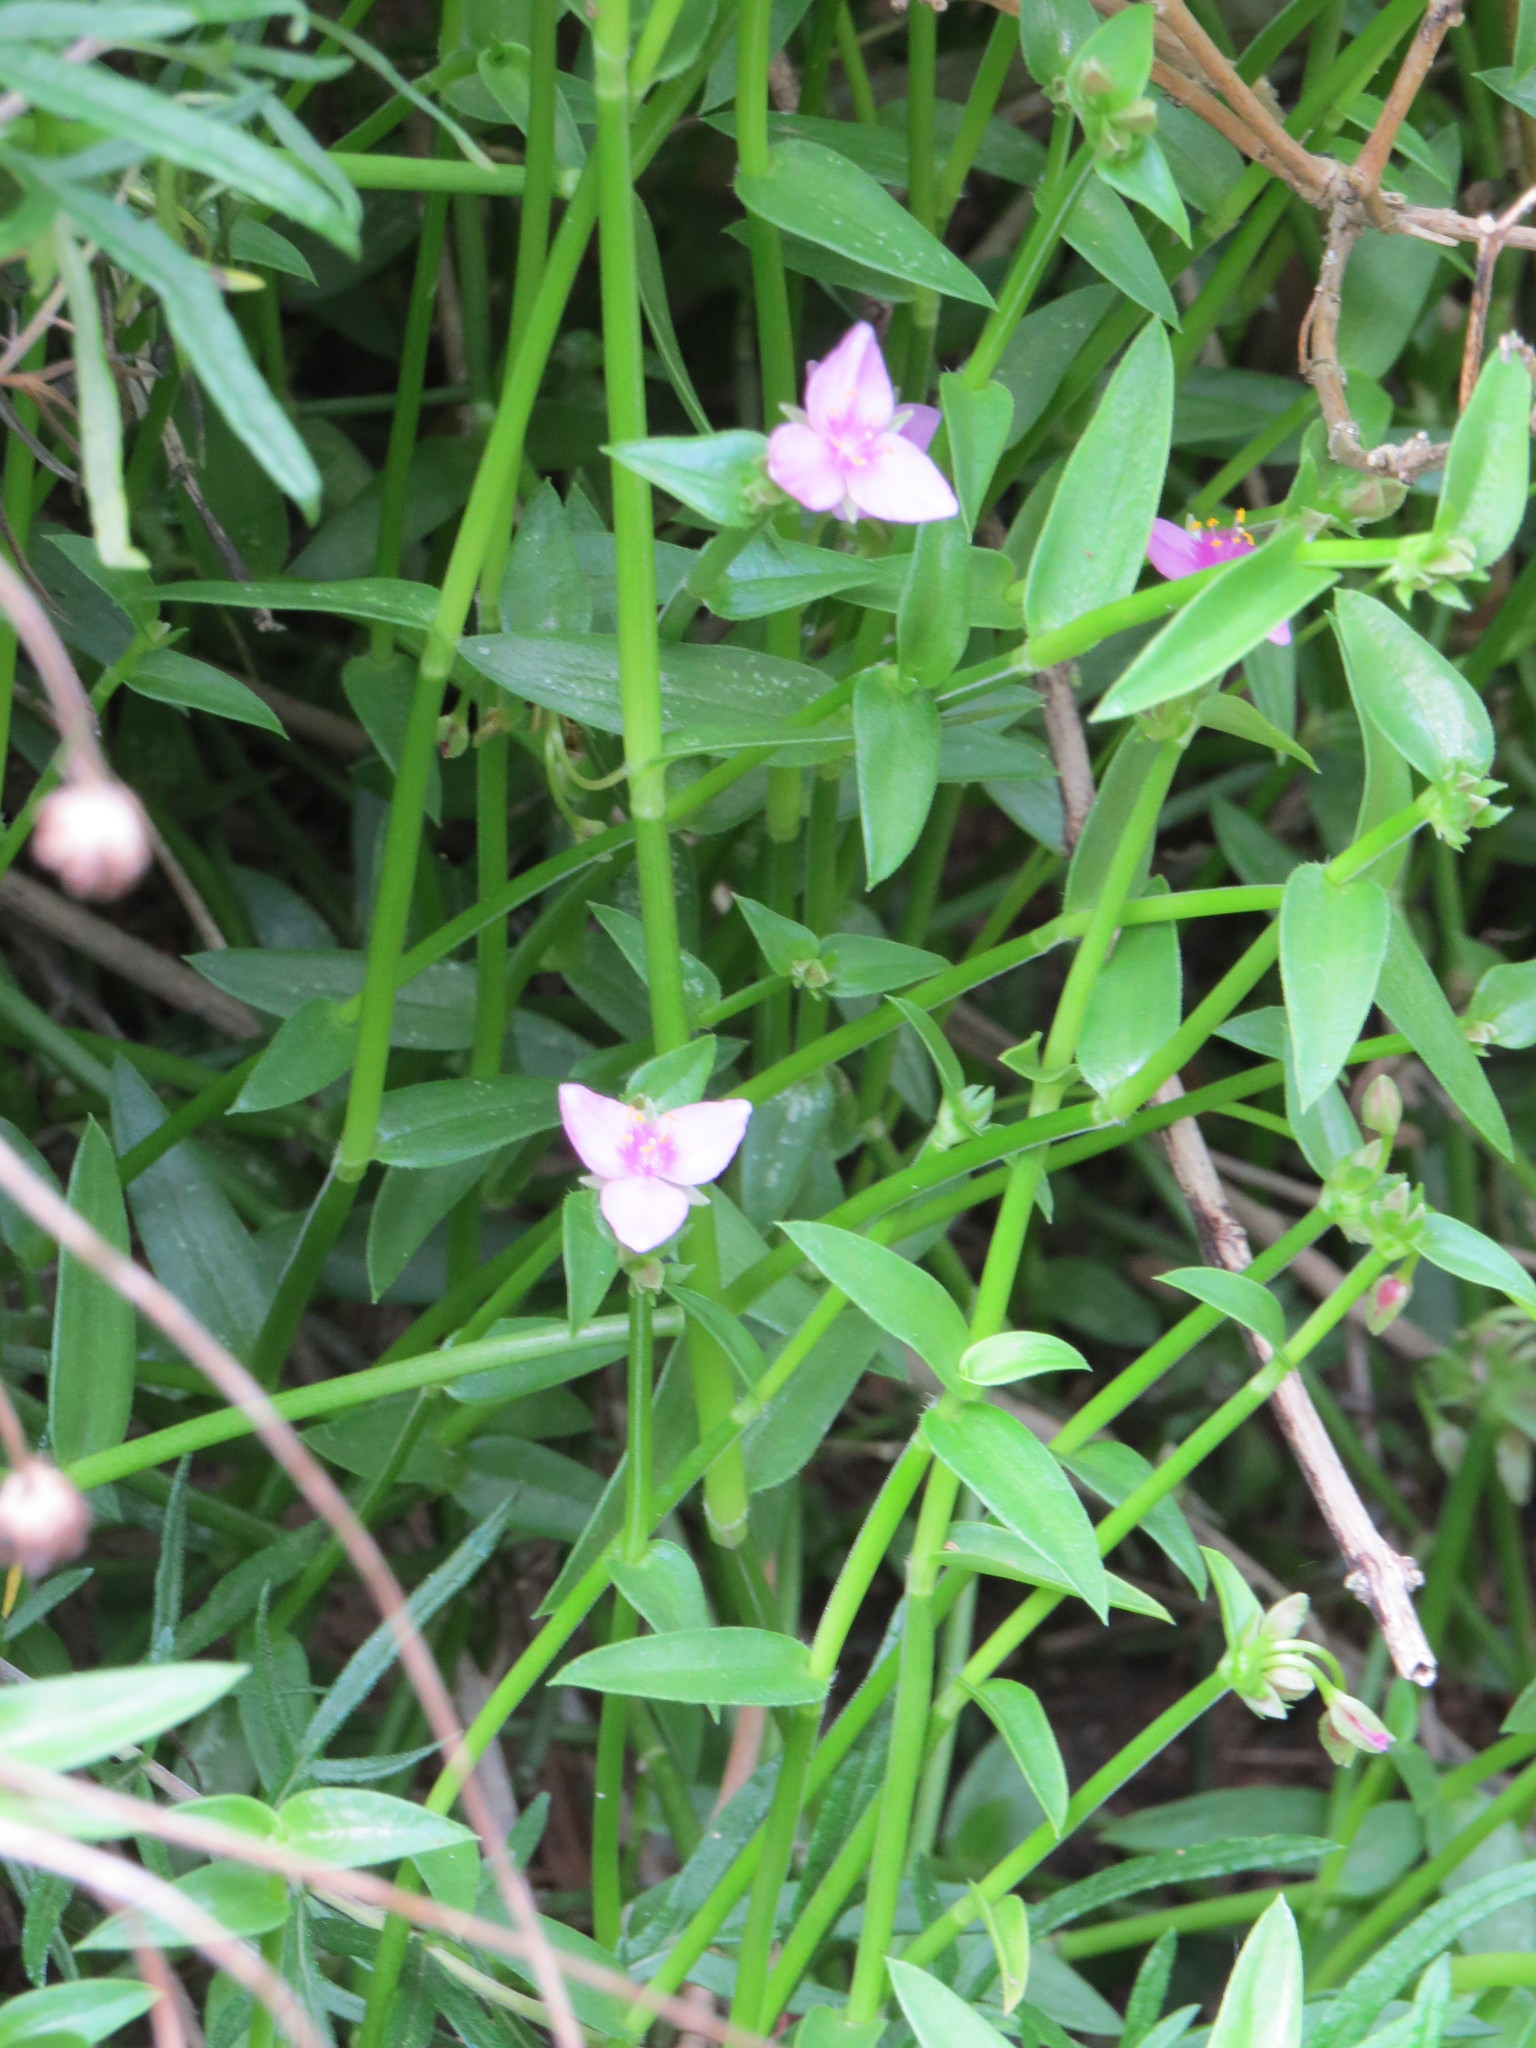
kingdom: Plantae
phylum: Tracheophyta
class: Liliopsida
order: Commelinales
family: Commelinaceae
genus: Callisia
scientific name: Callisia micrantha
